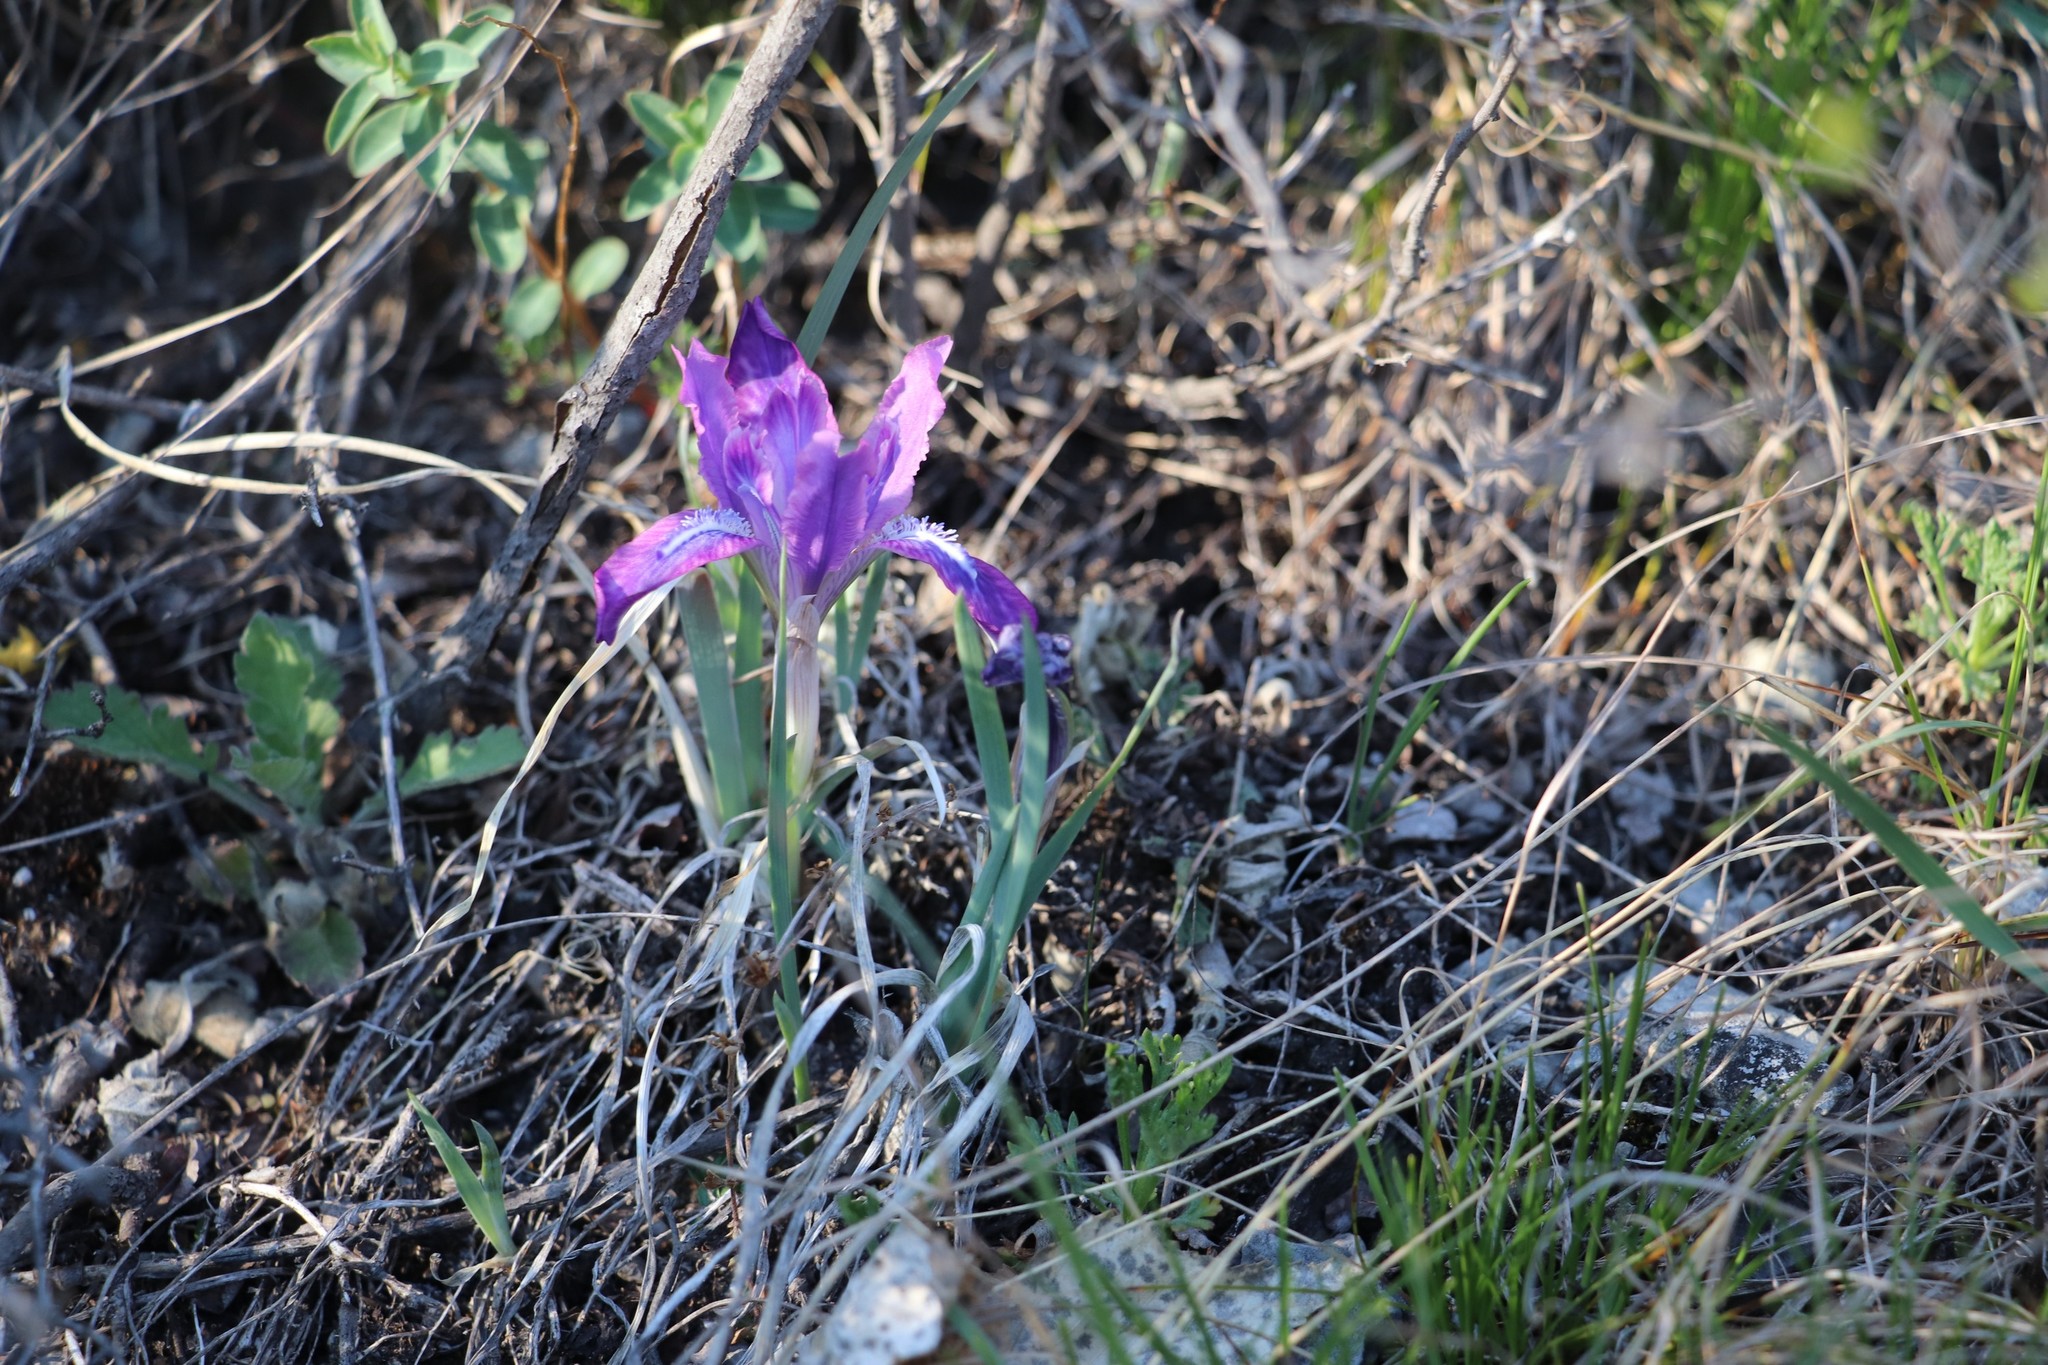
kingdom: Plantae
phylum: Tracheophyta
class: Liliopsida
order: Asparagales
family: Iridaceae
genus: Iris
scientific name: Iris tigridia
